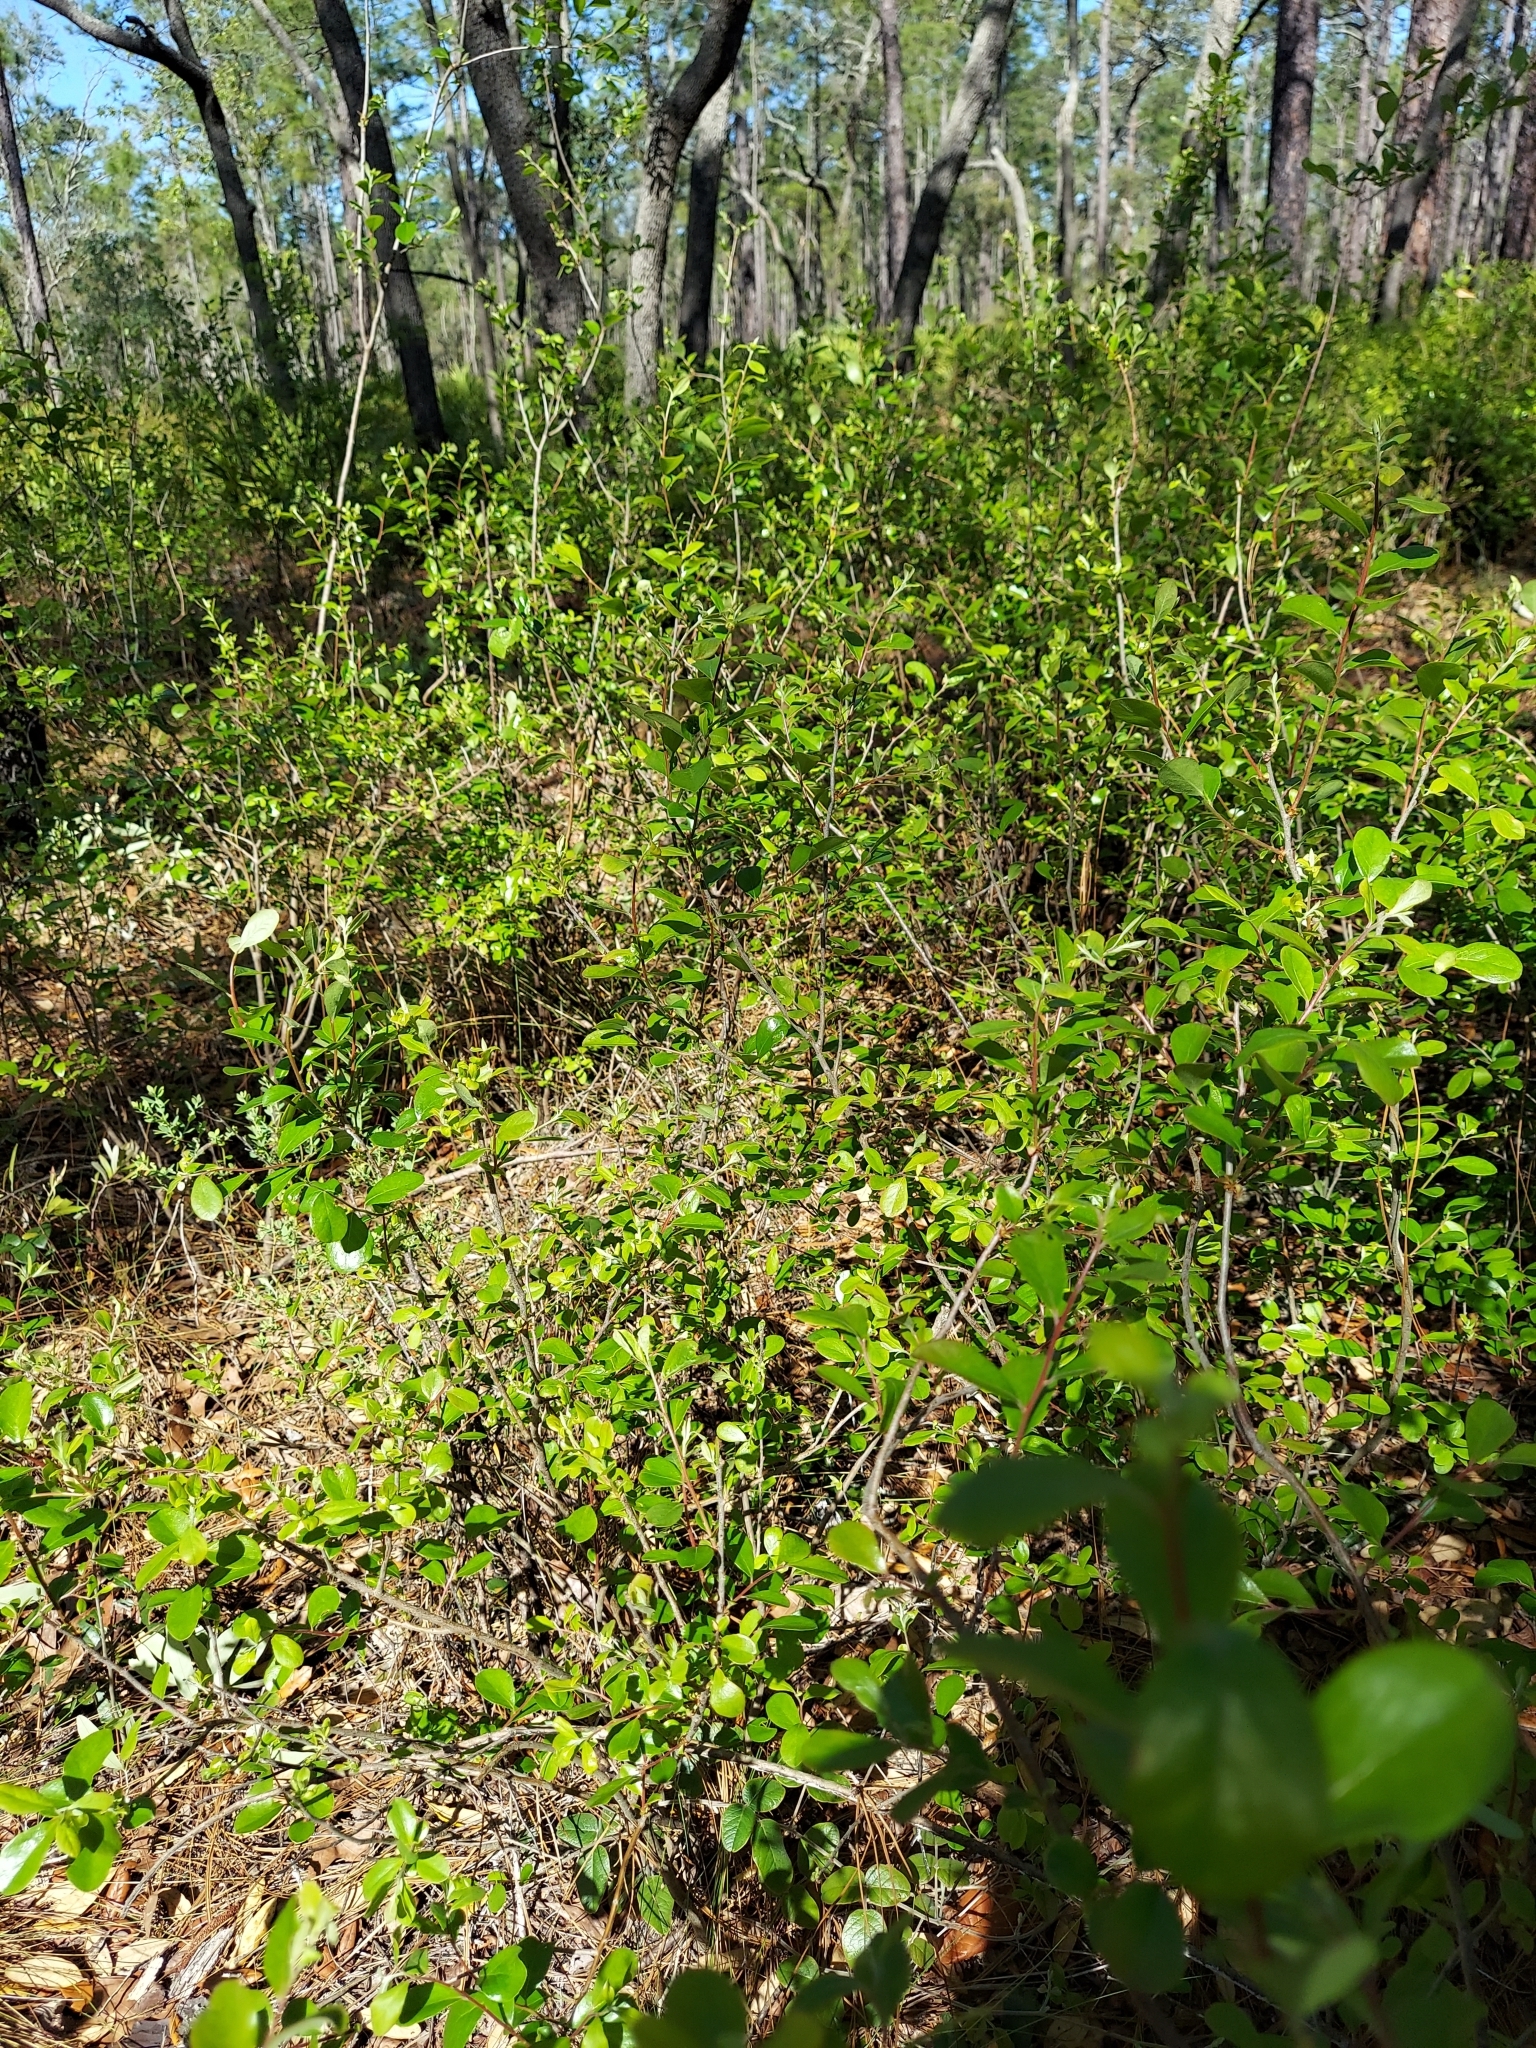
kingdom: Plantae
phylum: Tracheophyta
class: Magnoliopsida
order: Ericales
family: Ericaceae
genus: Vaccinium
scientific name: Vaccinium arboreum
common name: Farkleberry
